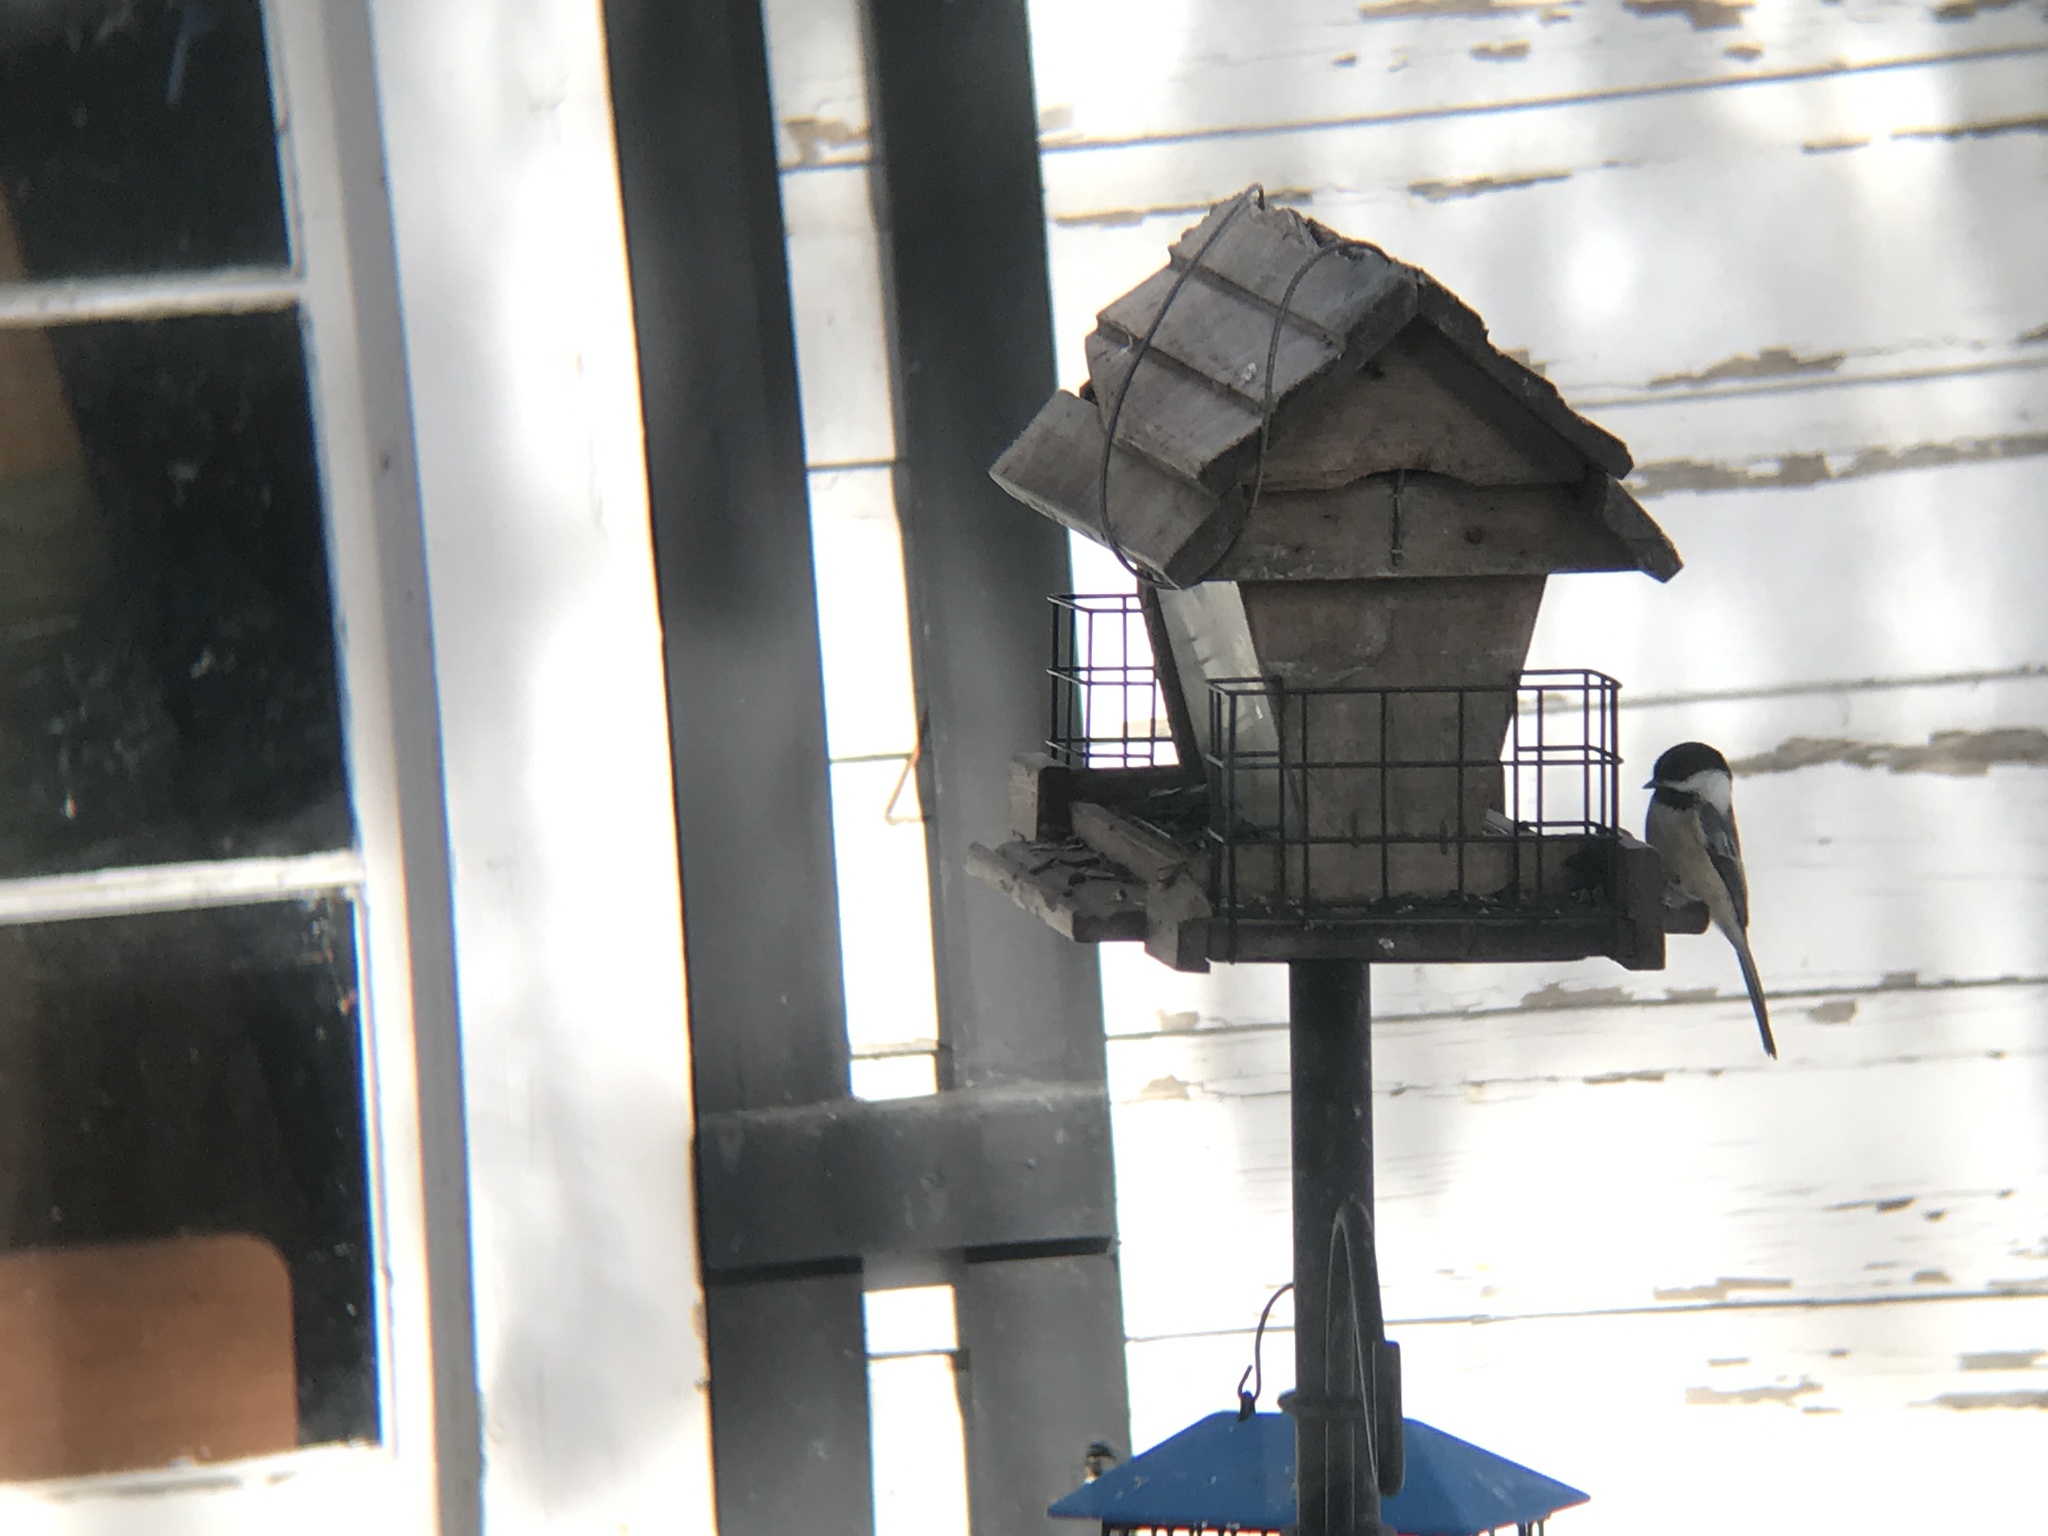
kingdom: Animalia
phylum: Chordata
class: Aves
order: Passeriformes
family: Paridae
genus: Poecile
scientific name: Poecile atricapillus
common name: Black-capped chickadee
